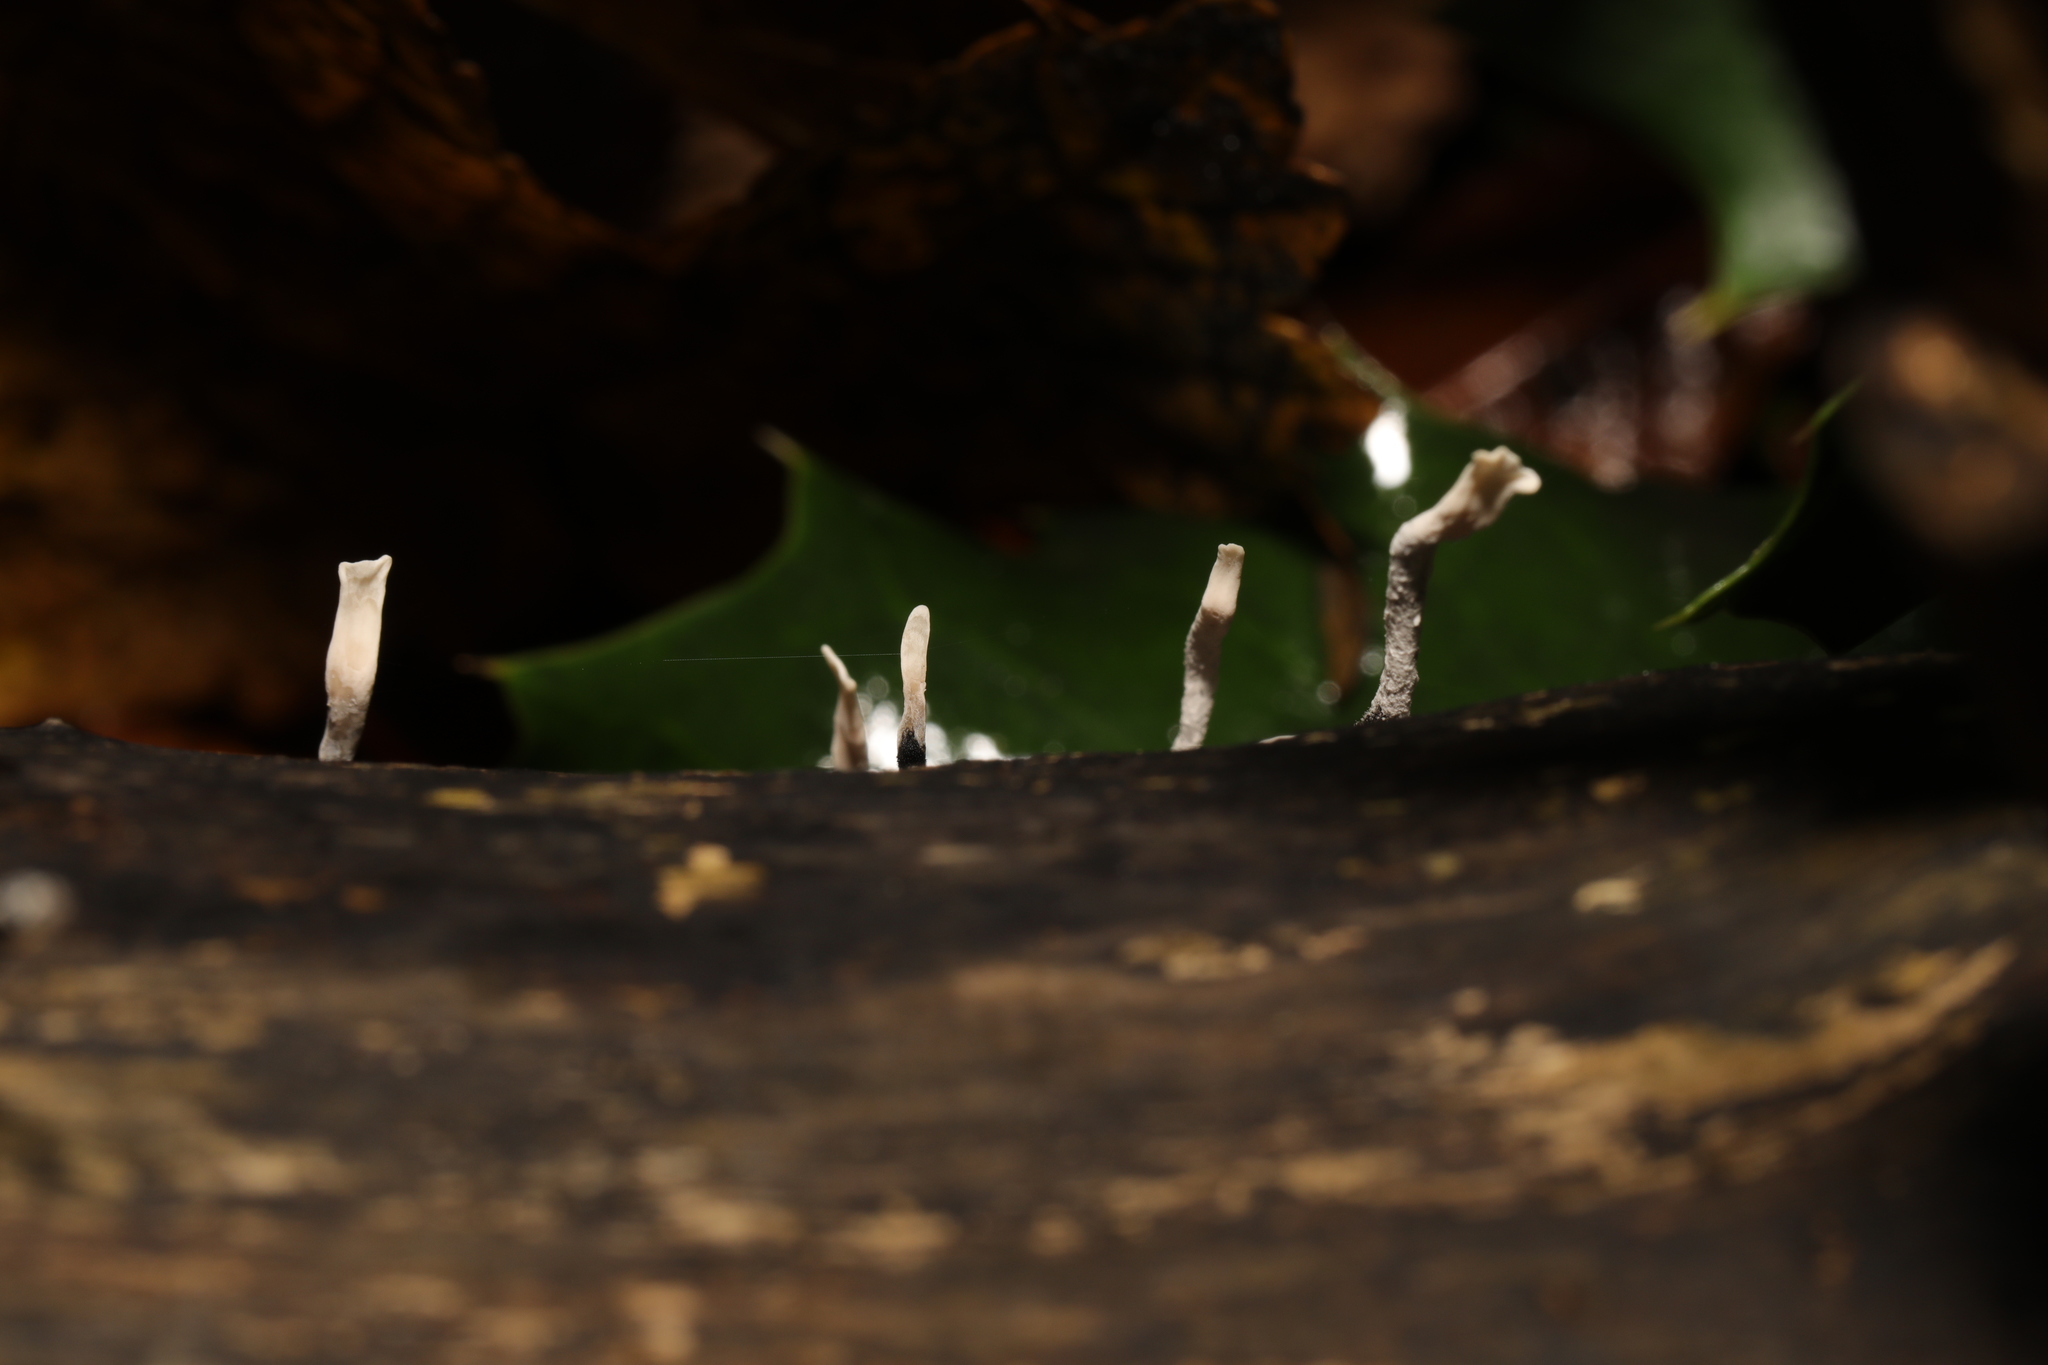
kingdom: Fungi
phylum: Ascomycota
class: Sordariomycetes
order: Xylariales
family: Xylariaceae
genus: Xylaria
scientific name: Xylaria hypoxylon
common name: Candle-snuff fungus
